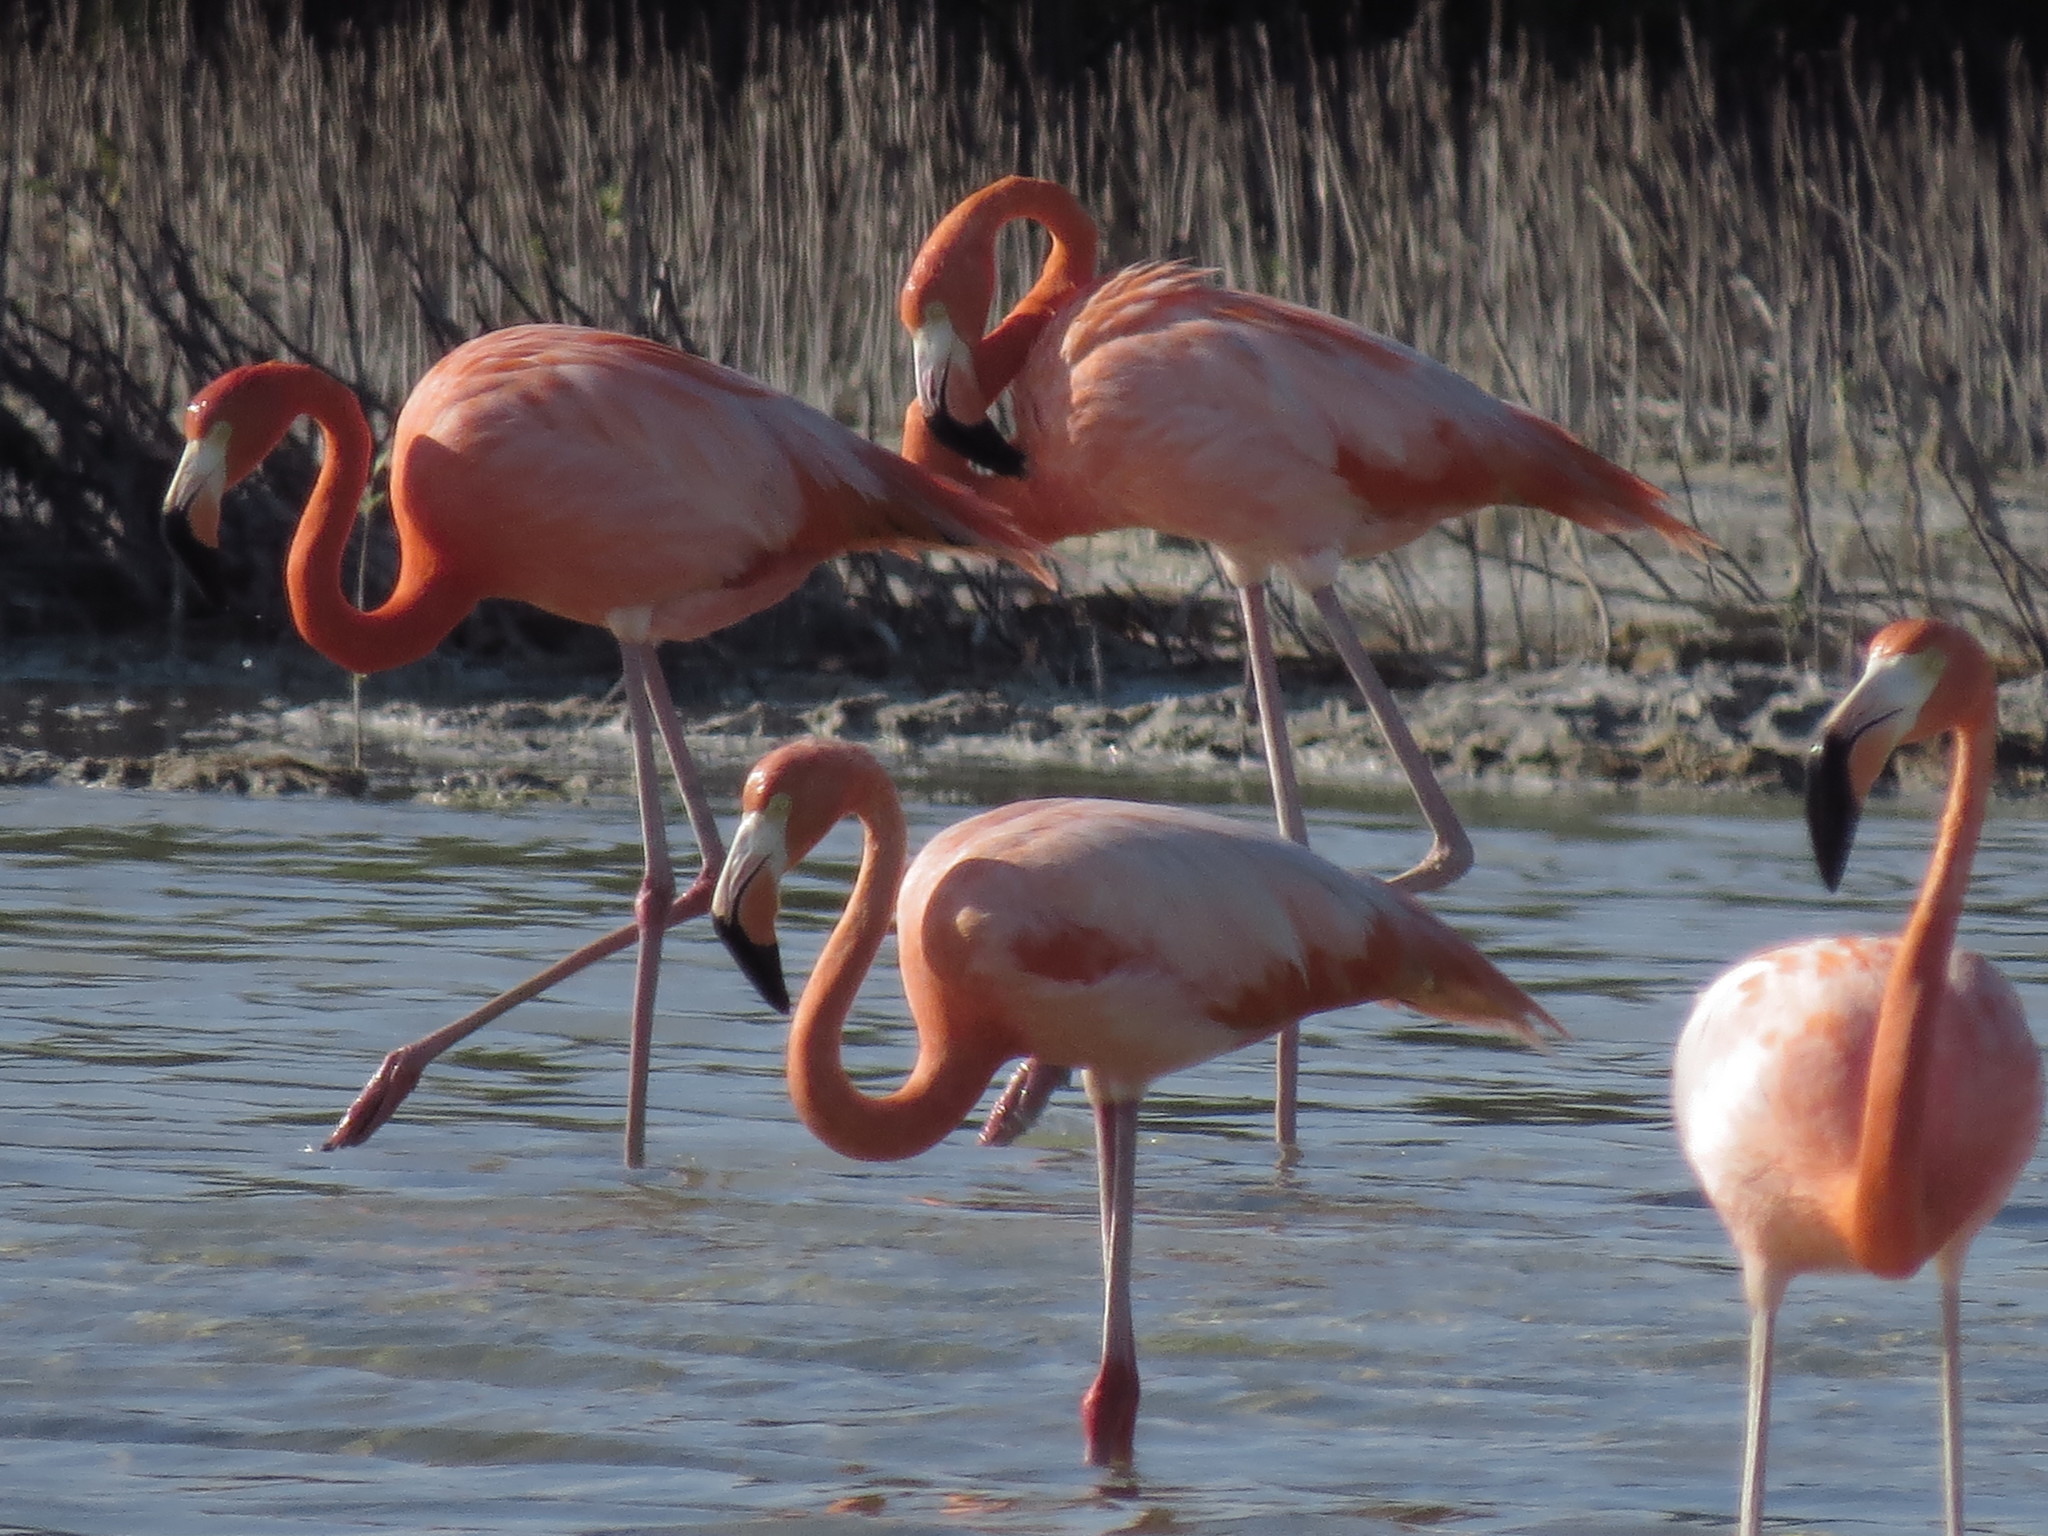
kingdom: Animalia
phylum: Chordata
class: Aves
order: Phoenicopteriformes
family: Phoenicopteridae
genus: Phoenicopterus
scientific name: Phoenicopterus ruber
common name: American flamingo
